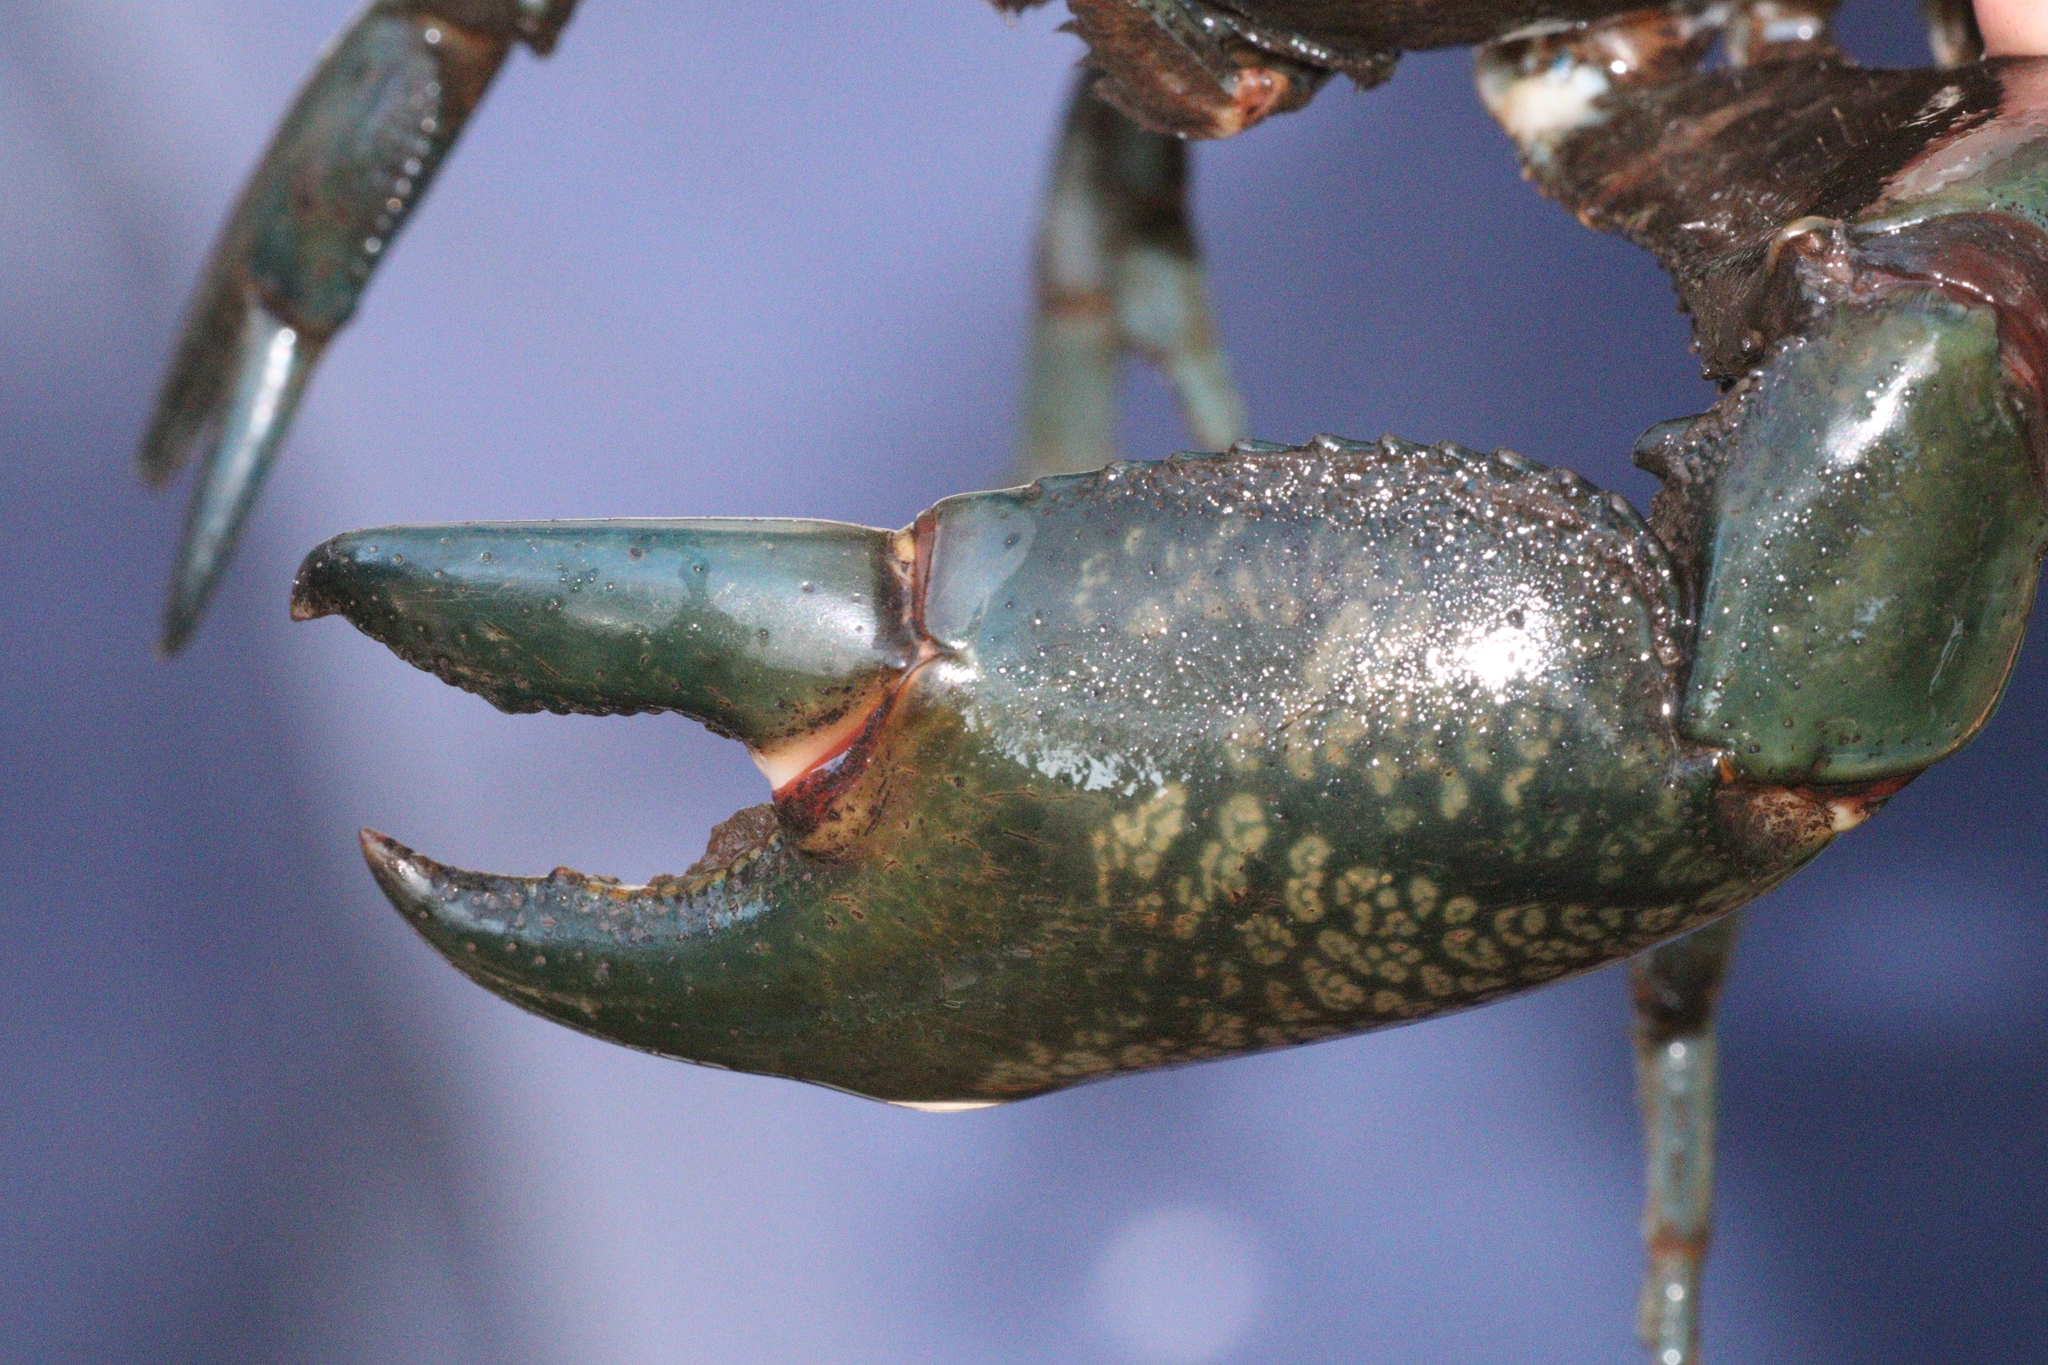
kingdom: Animalia
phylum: Arthropoda
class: Malacostraca
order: Decapoda
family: Parastacidae
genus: Cherax
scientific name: Cherax destructor
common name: Yabby
